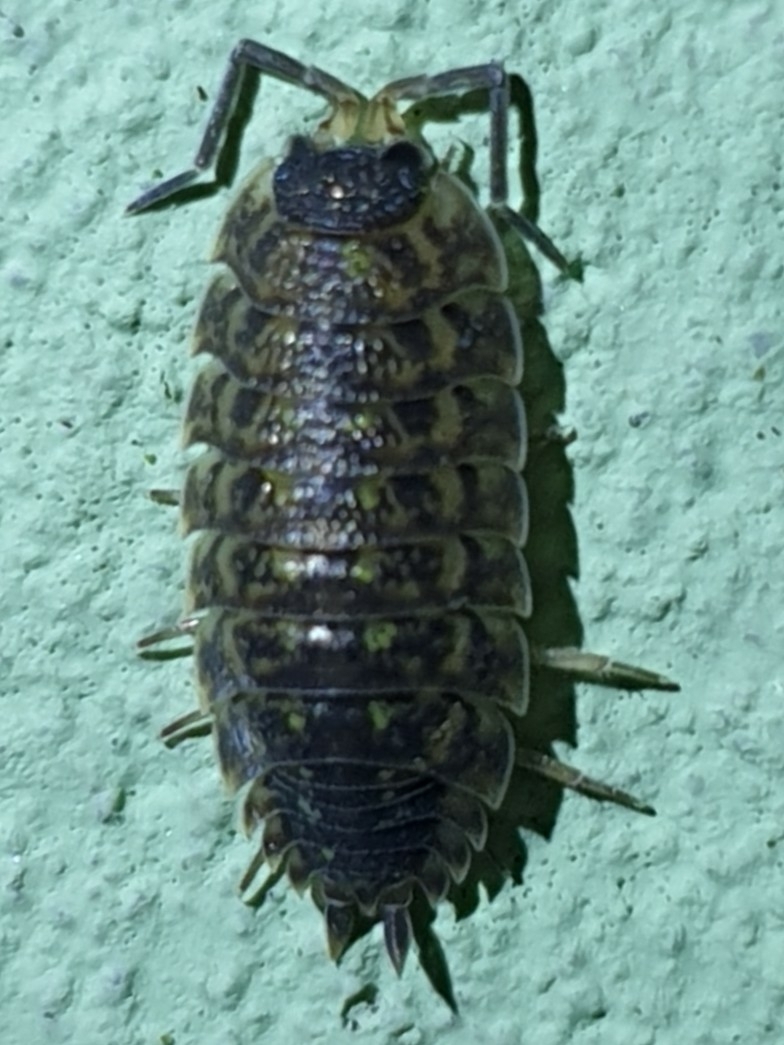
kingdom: Animalia
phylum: Arthropoda
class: Malacostraca
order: Isopoda
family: Porcellionidae
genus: Porcellio
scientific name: Porcellio spinicornis
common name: Painted woodlouse
